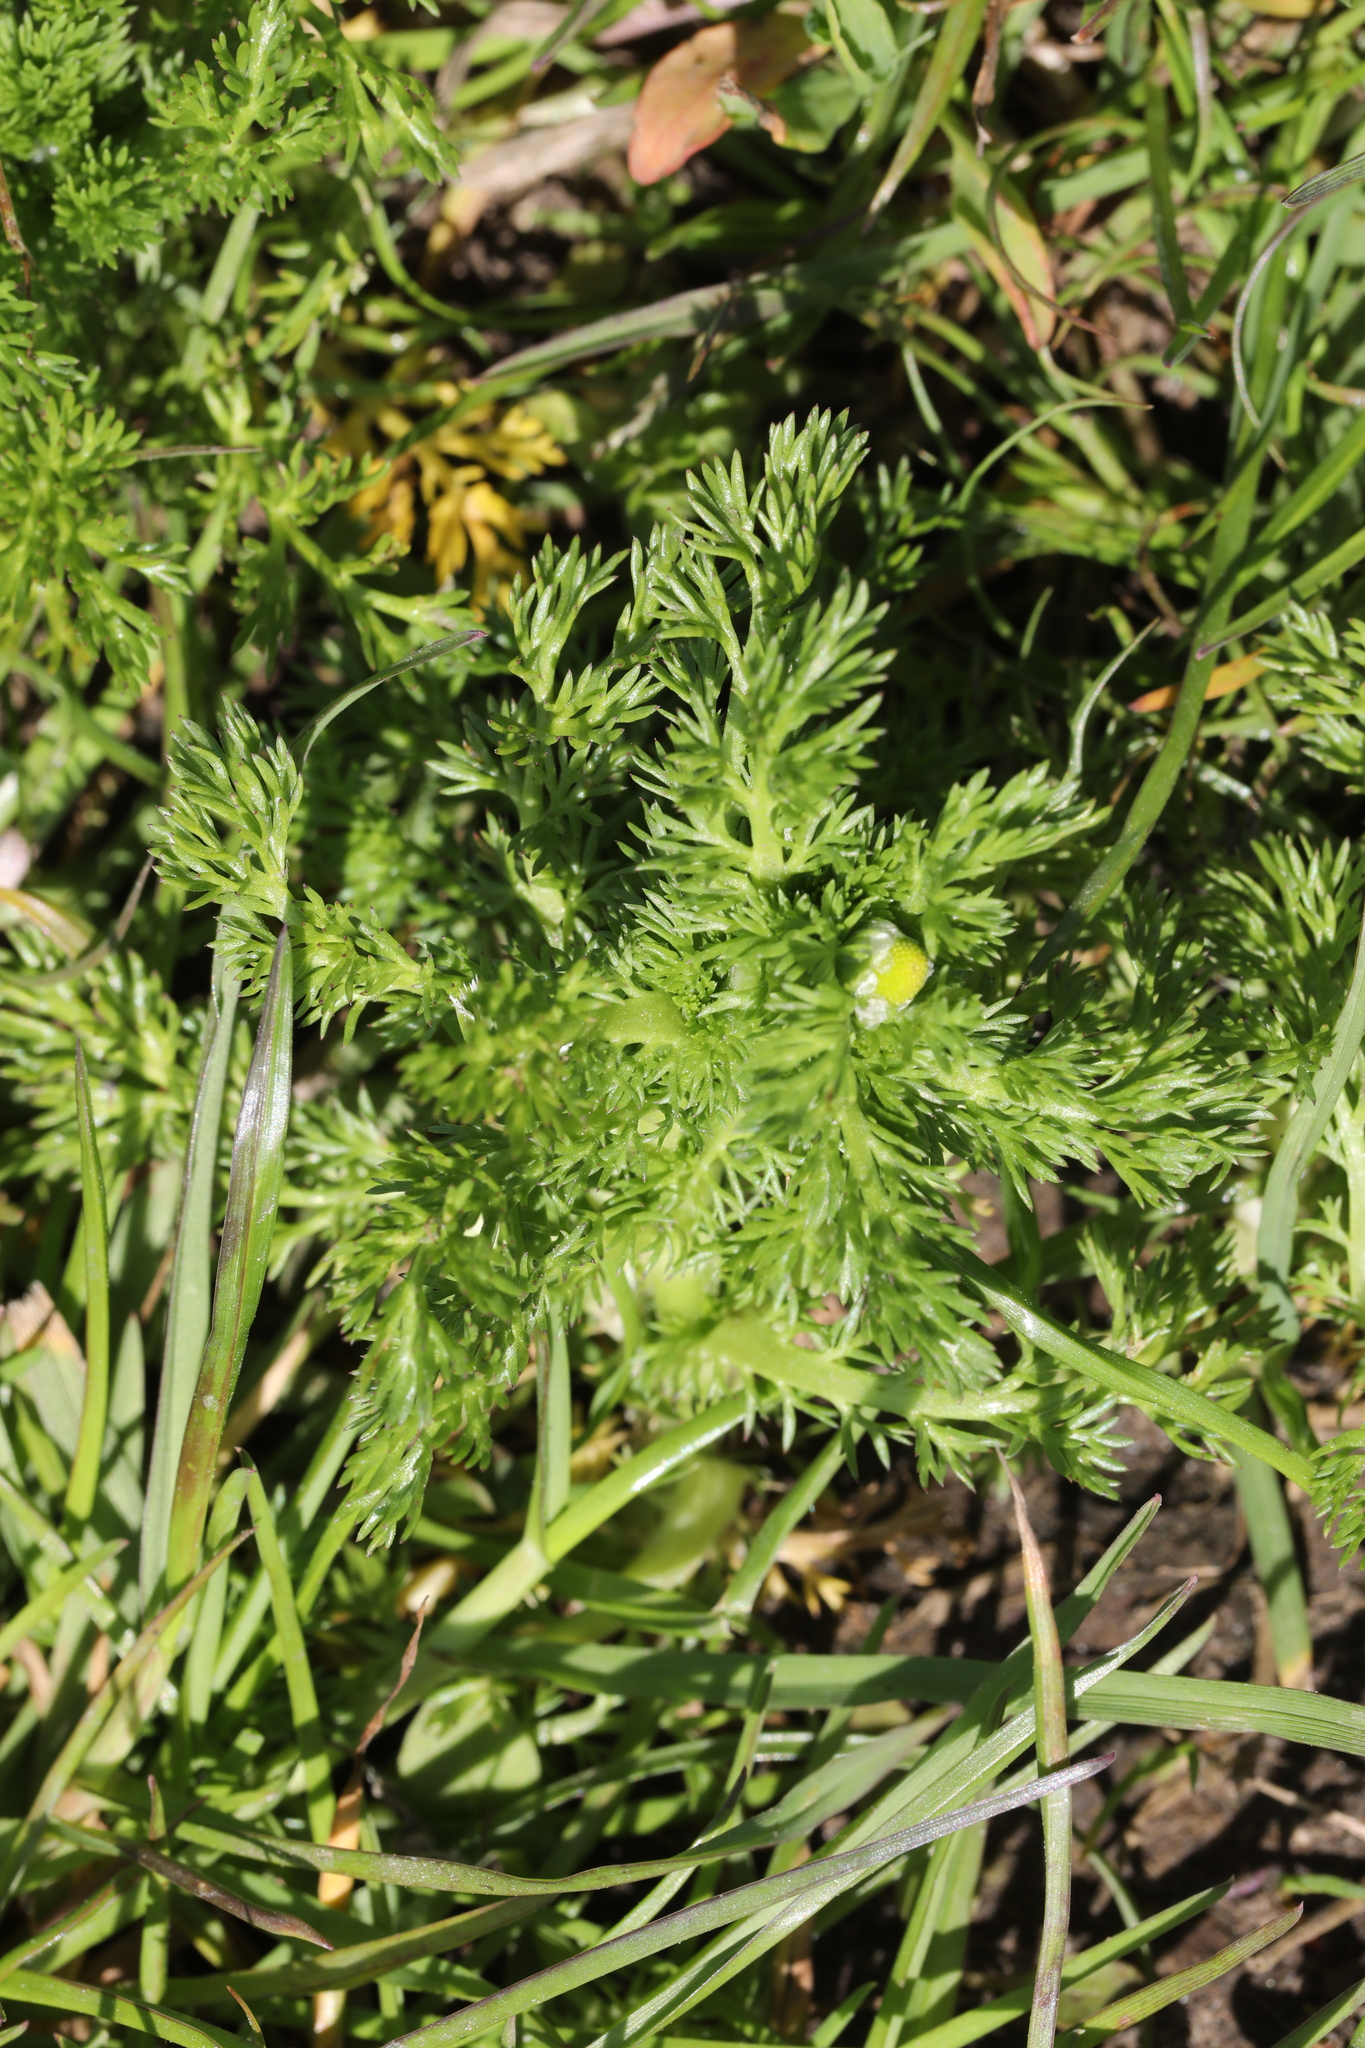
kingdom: Plantae
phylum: Tracheophyta
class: Magnoliopsida
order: Asterales
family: Asteraceae
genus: Matricaria
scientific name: Matricaria discoidea
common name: Disc mayweed
